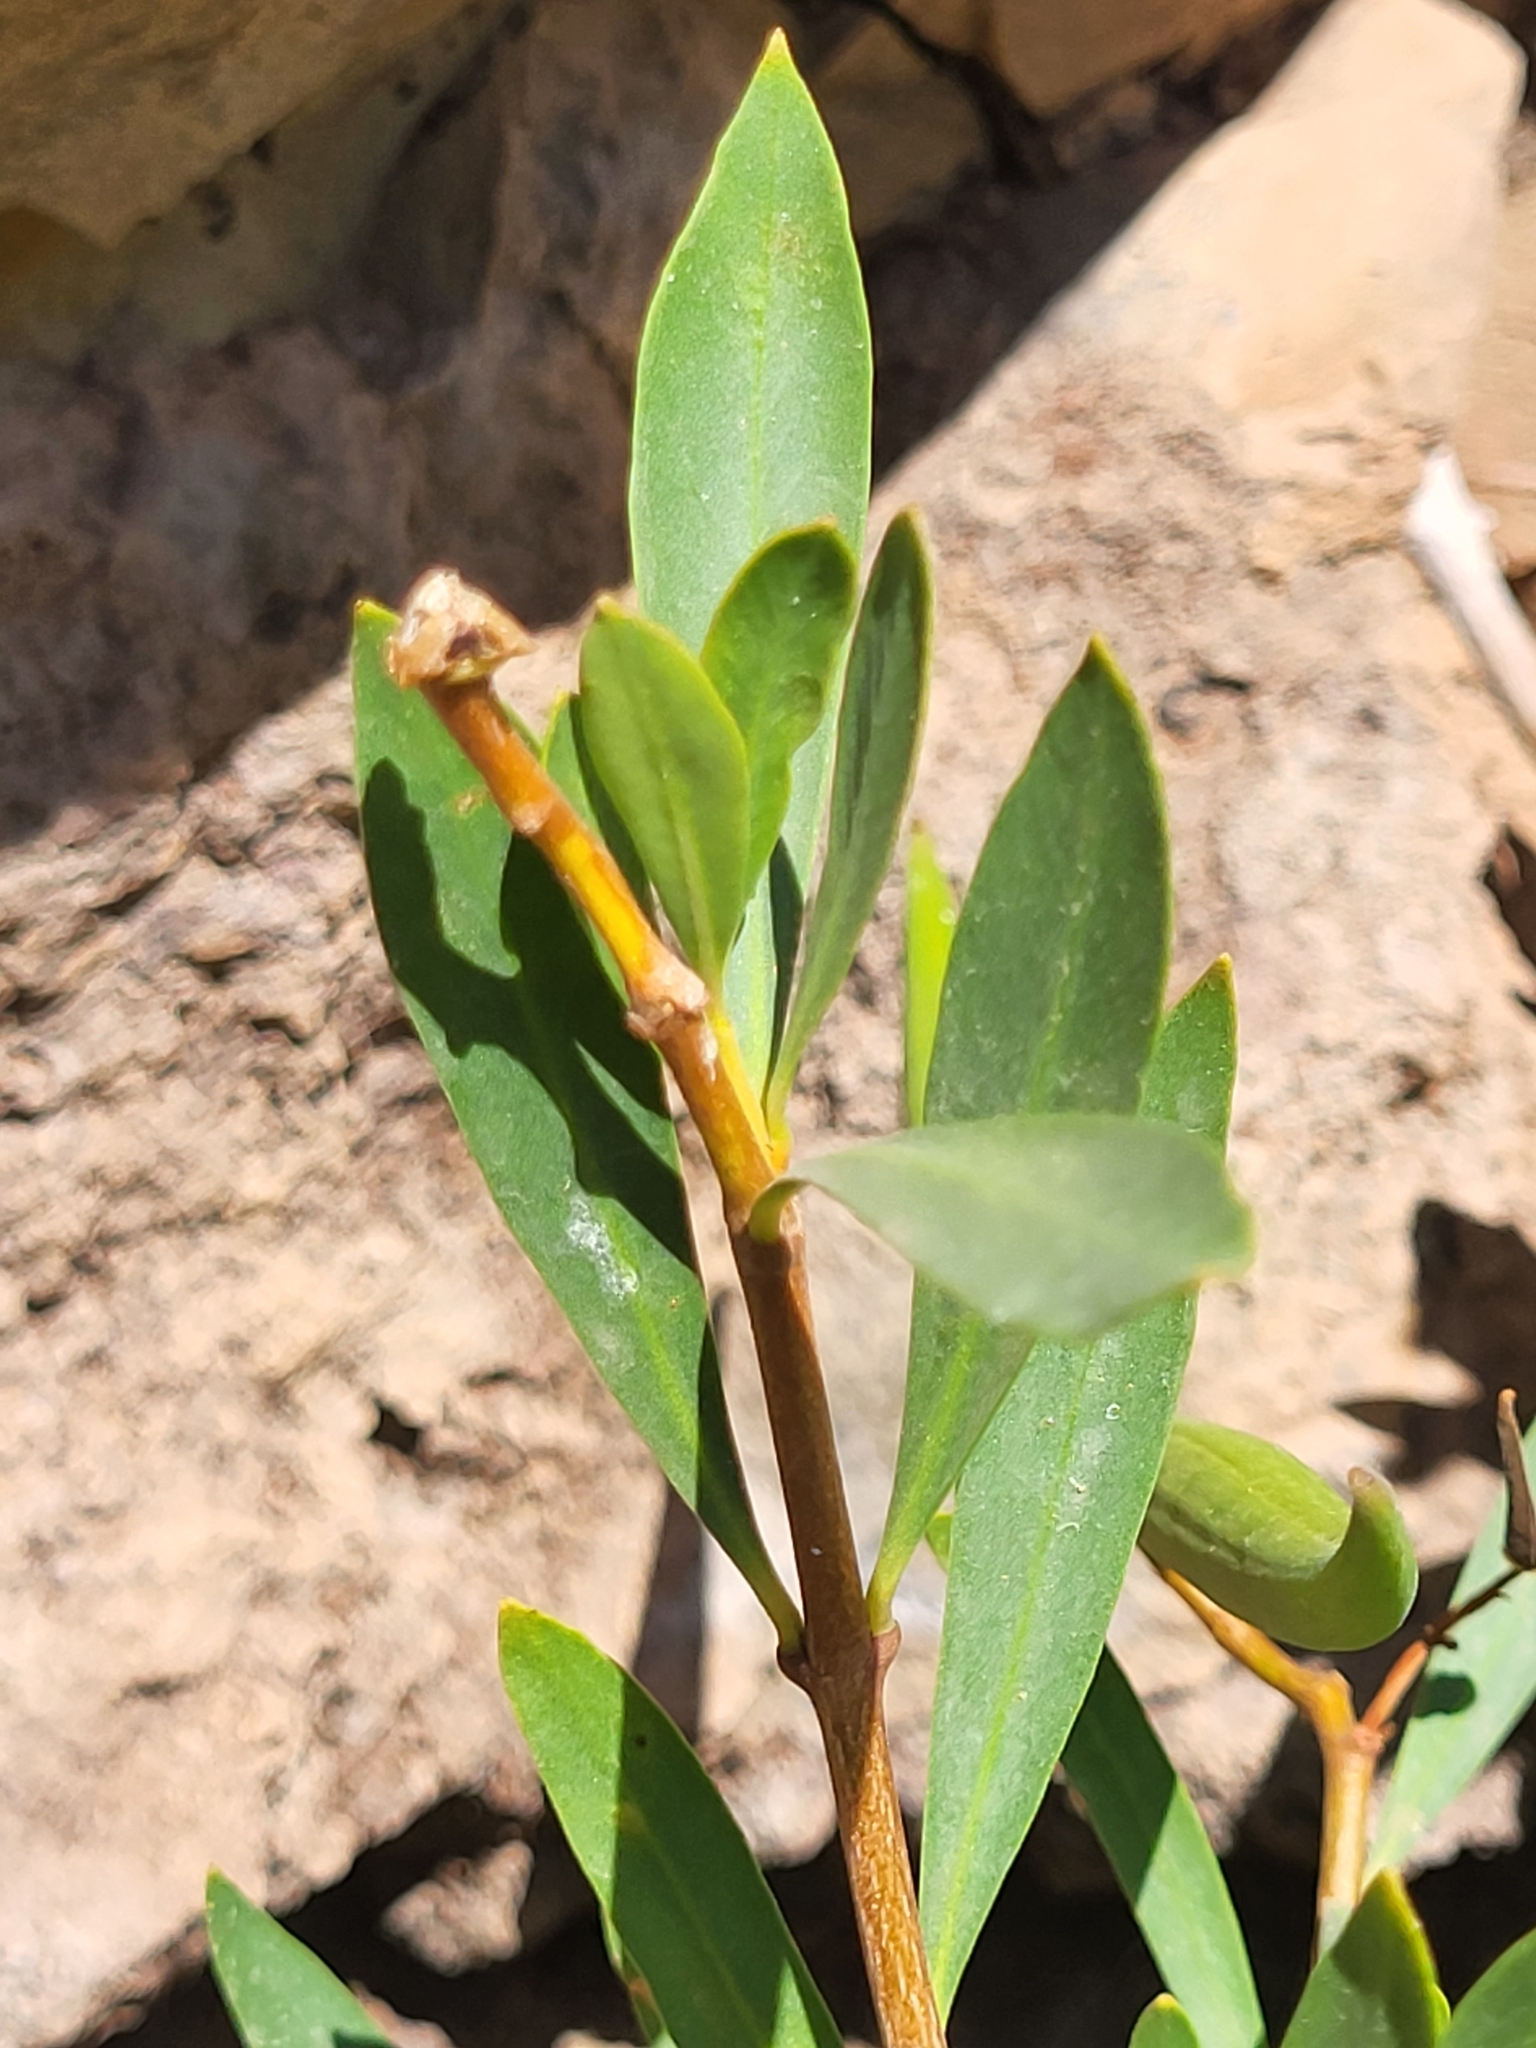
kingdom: Plantae
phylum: Tracheophyta
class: Magnoliopsida
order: Gentianales
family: Apocynaceae
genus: Periploca
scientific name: Periploca laevigata
